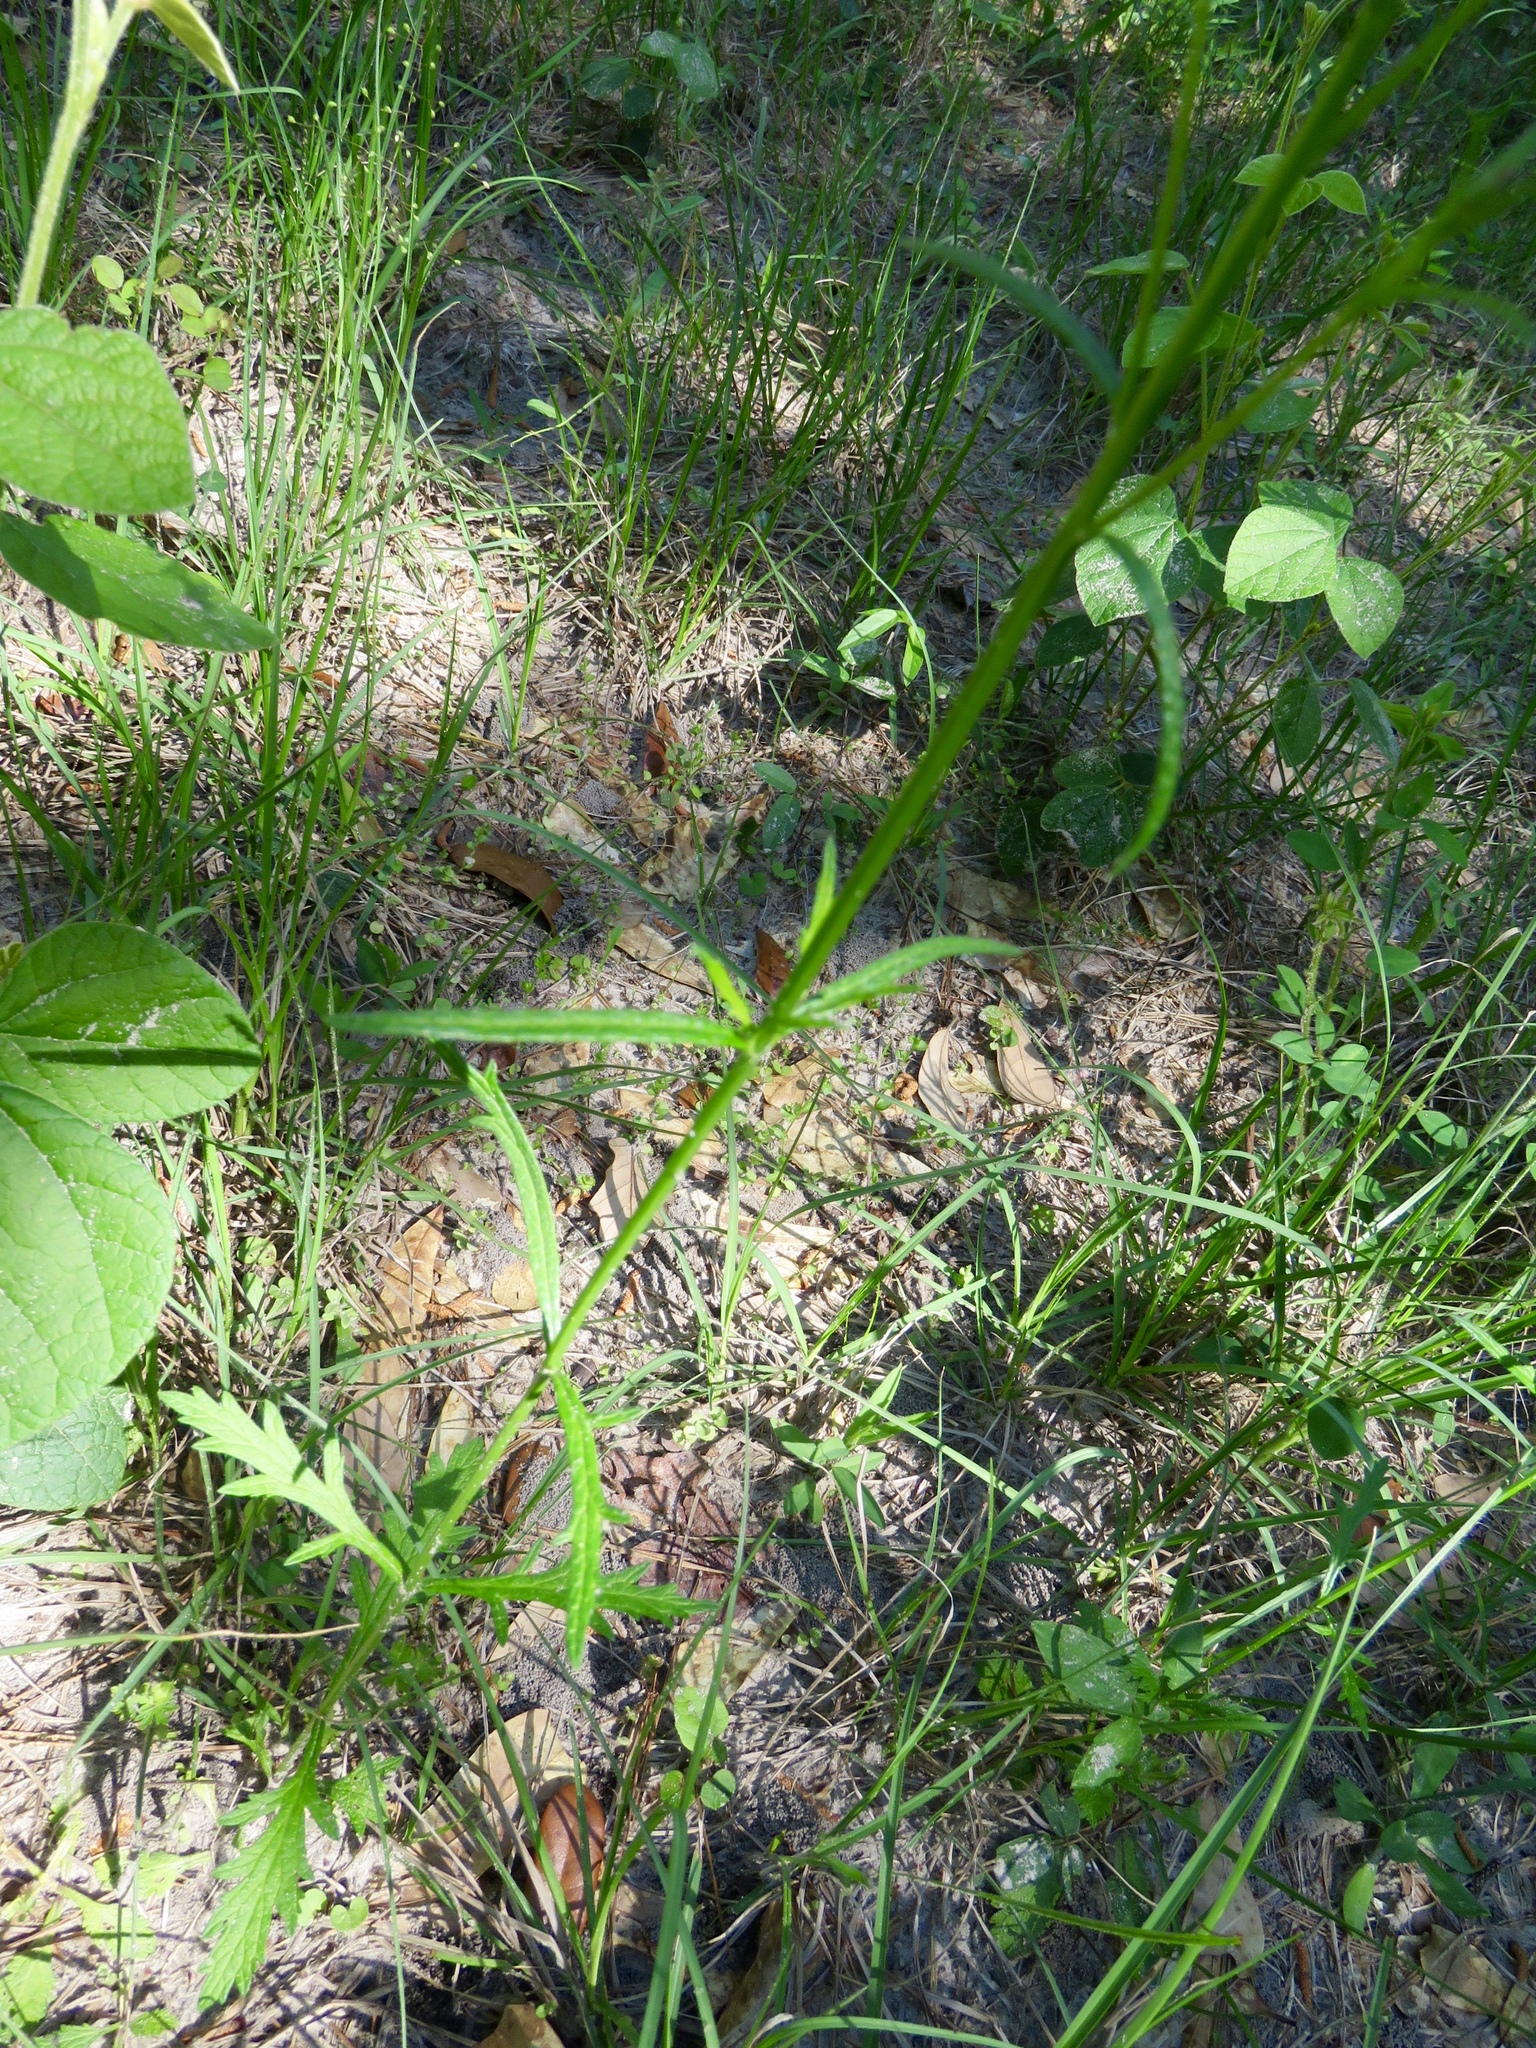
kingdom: Plantae
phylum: Tracheophyta
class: Magnoliopsida
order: Lamiales
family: Verbenaceae
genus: Verbena
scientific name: Verbena halei
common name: Texas vervain
